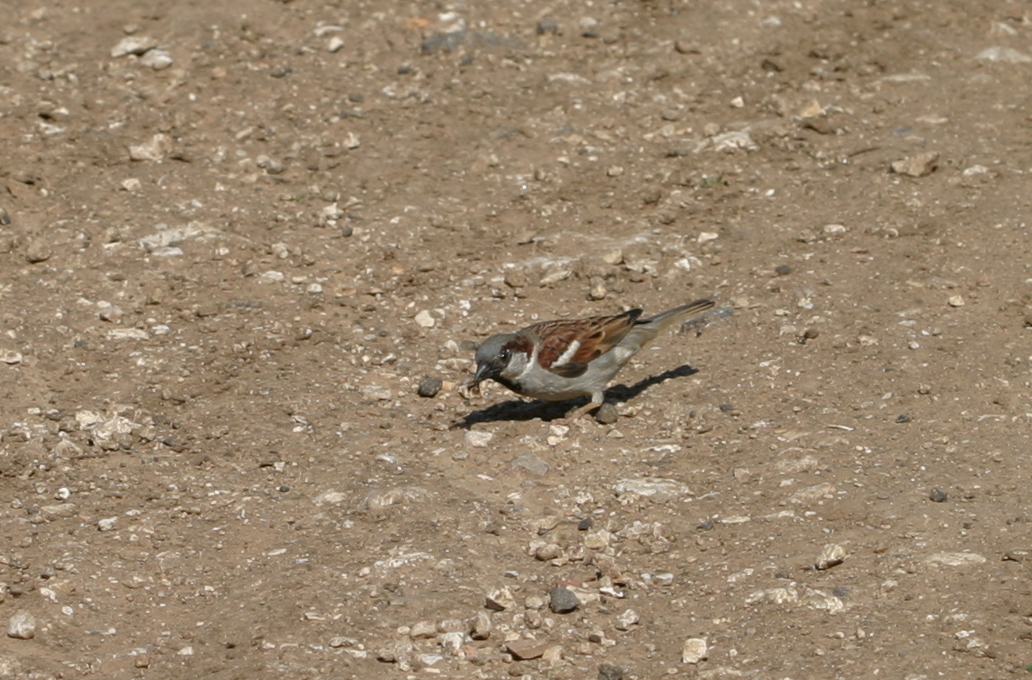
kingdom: Animalia
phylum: Chordata
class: Aves
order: Passeriformes
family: Passeridae
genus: Passer
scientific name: Passer domesticus
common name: House sparrow
